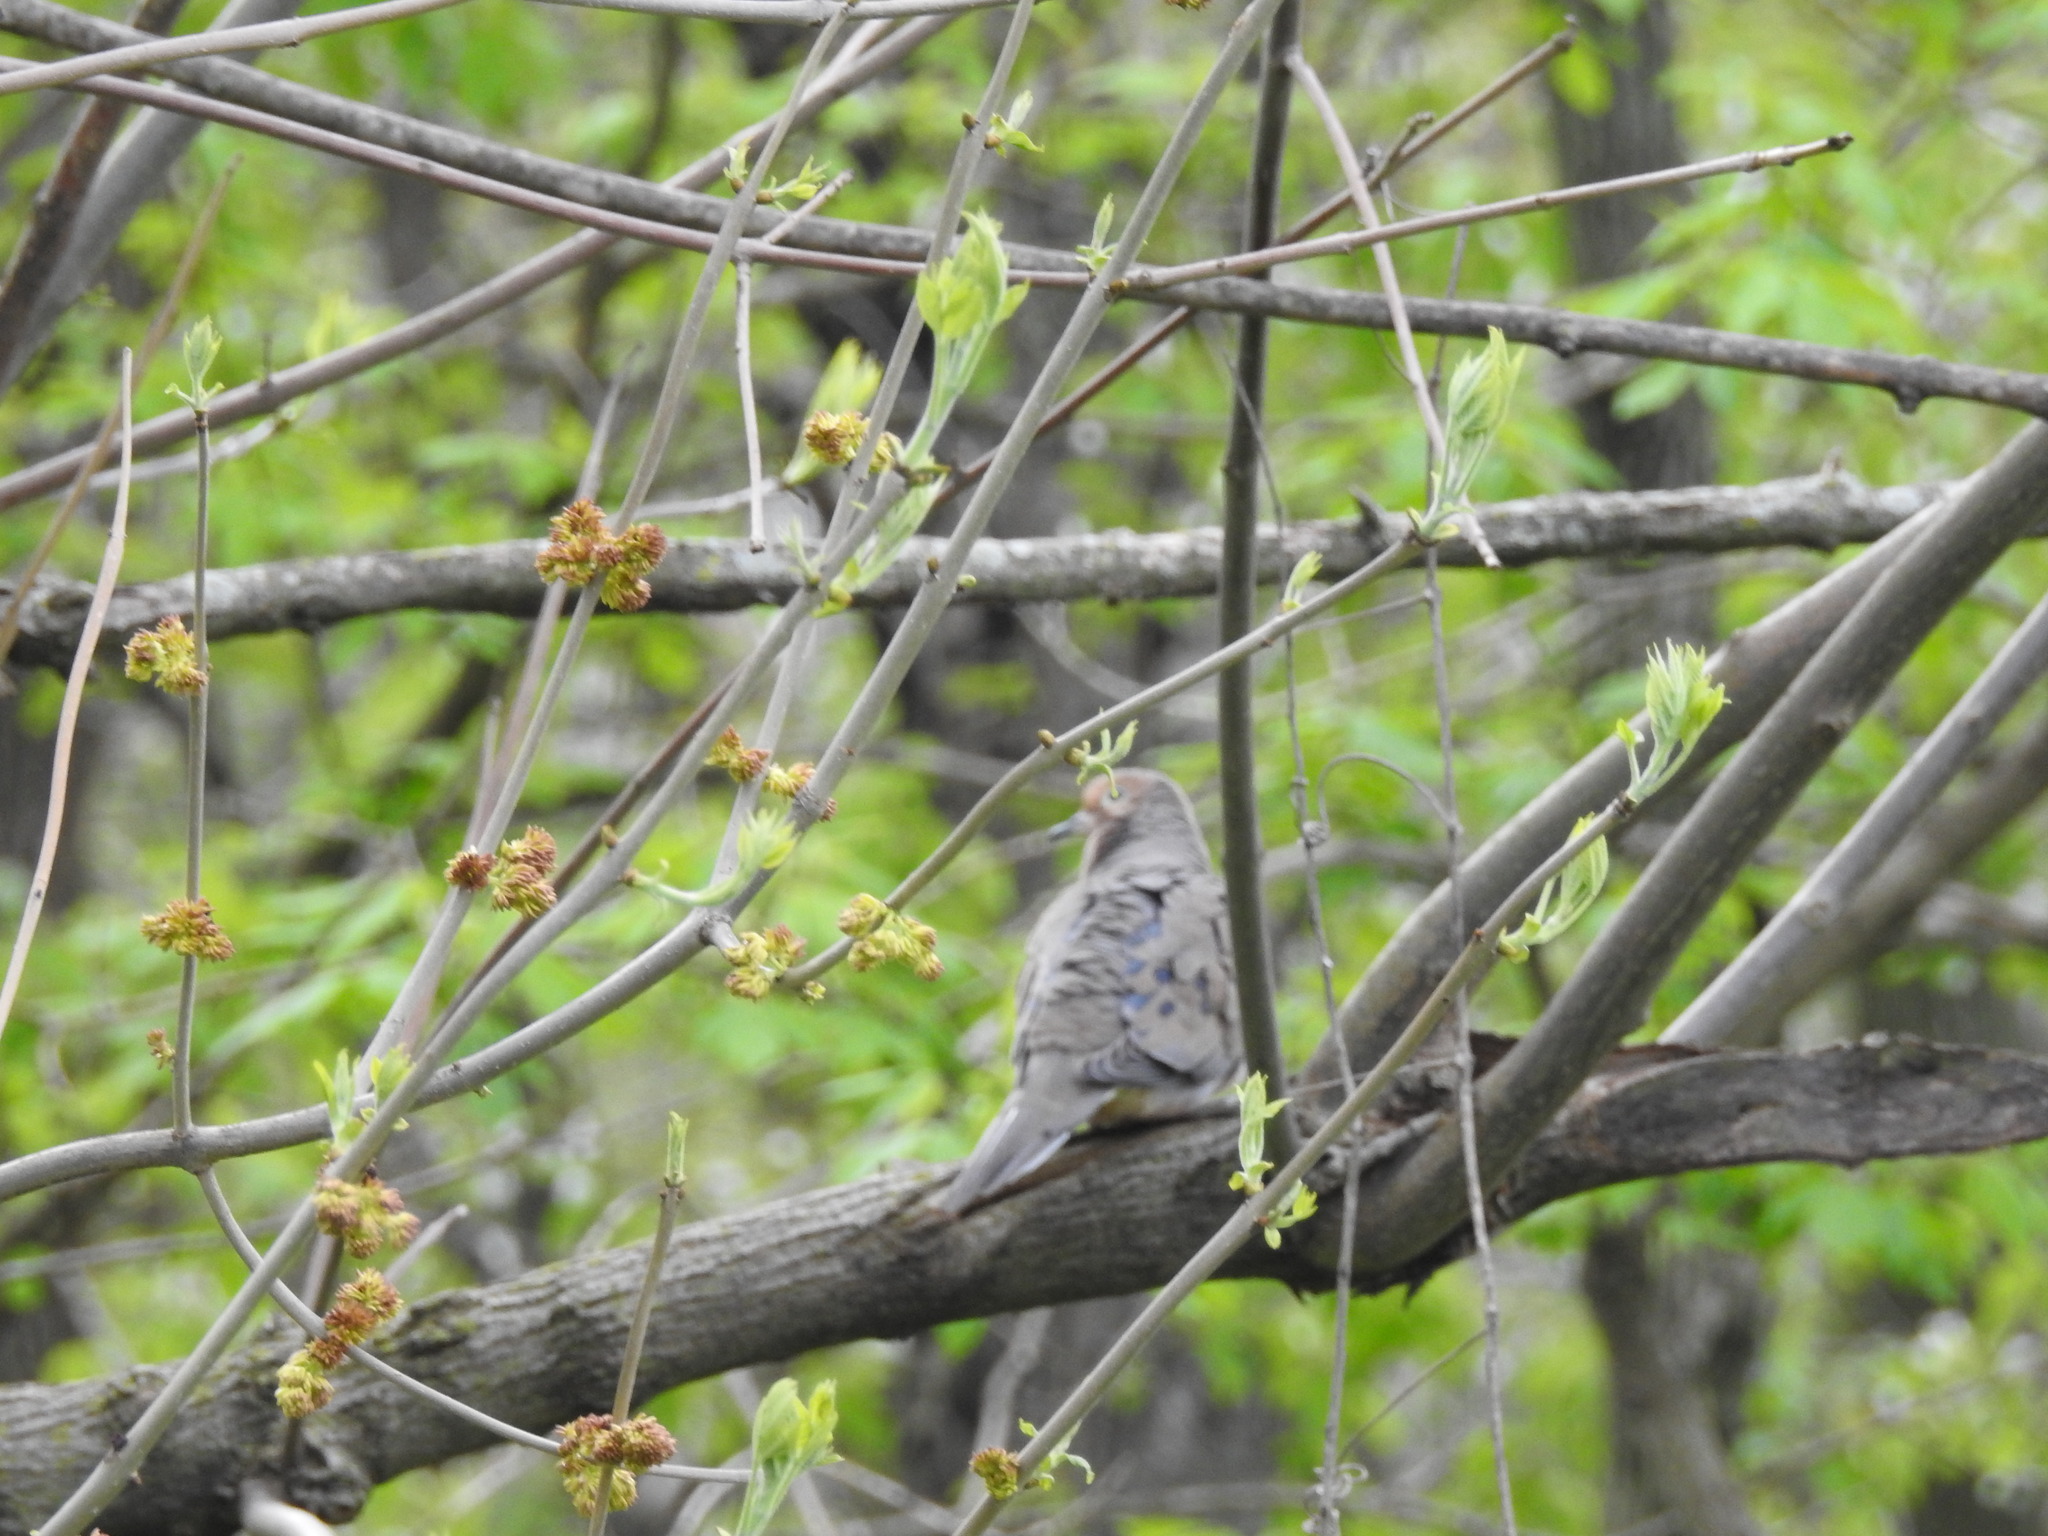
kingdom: Animalia
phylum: Chordata
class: Aves
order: Columbiformes
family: Columbidae
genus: Zenaida
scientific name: Zenaida macroura
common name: Mourning dove
